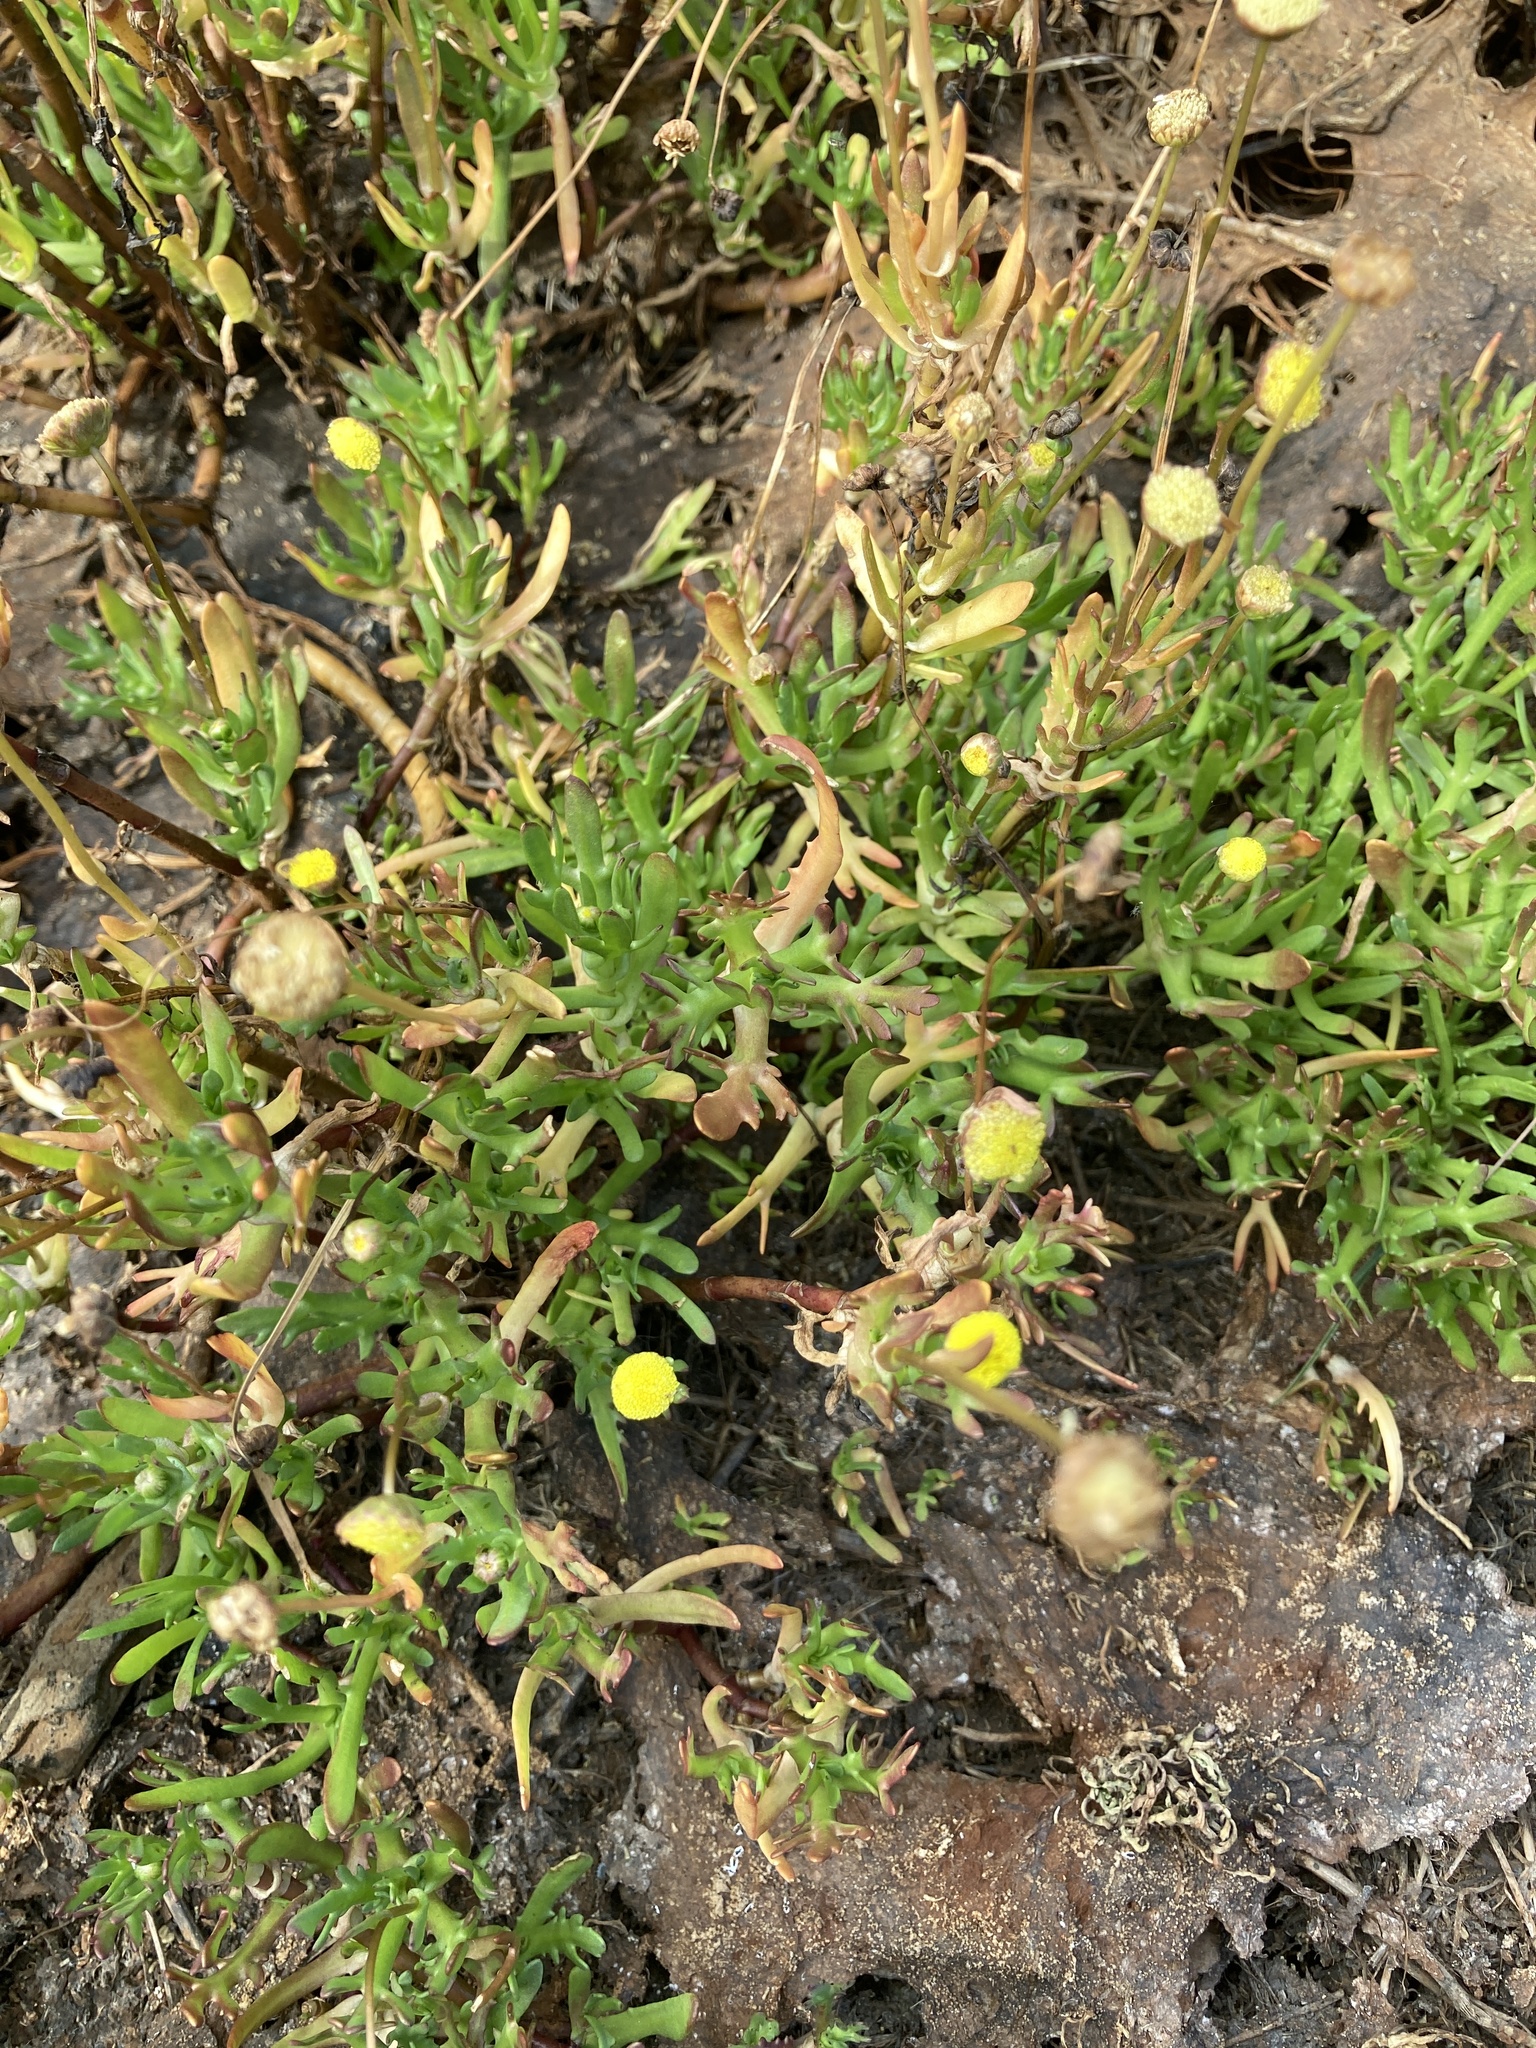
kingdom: Plantae
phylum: Tracheophyta
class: Magnoliopsida
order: Asterales
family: Asteraceae
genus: Cotula
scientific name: Cotula coronopifolia
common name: Buttonweed
